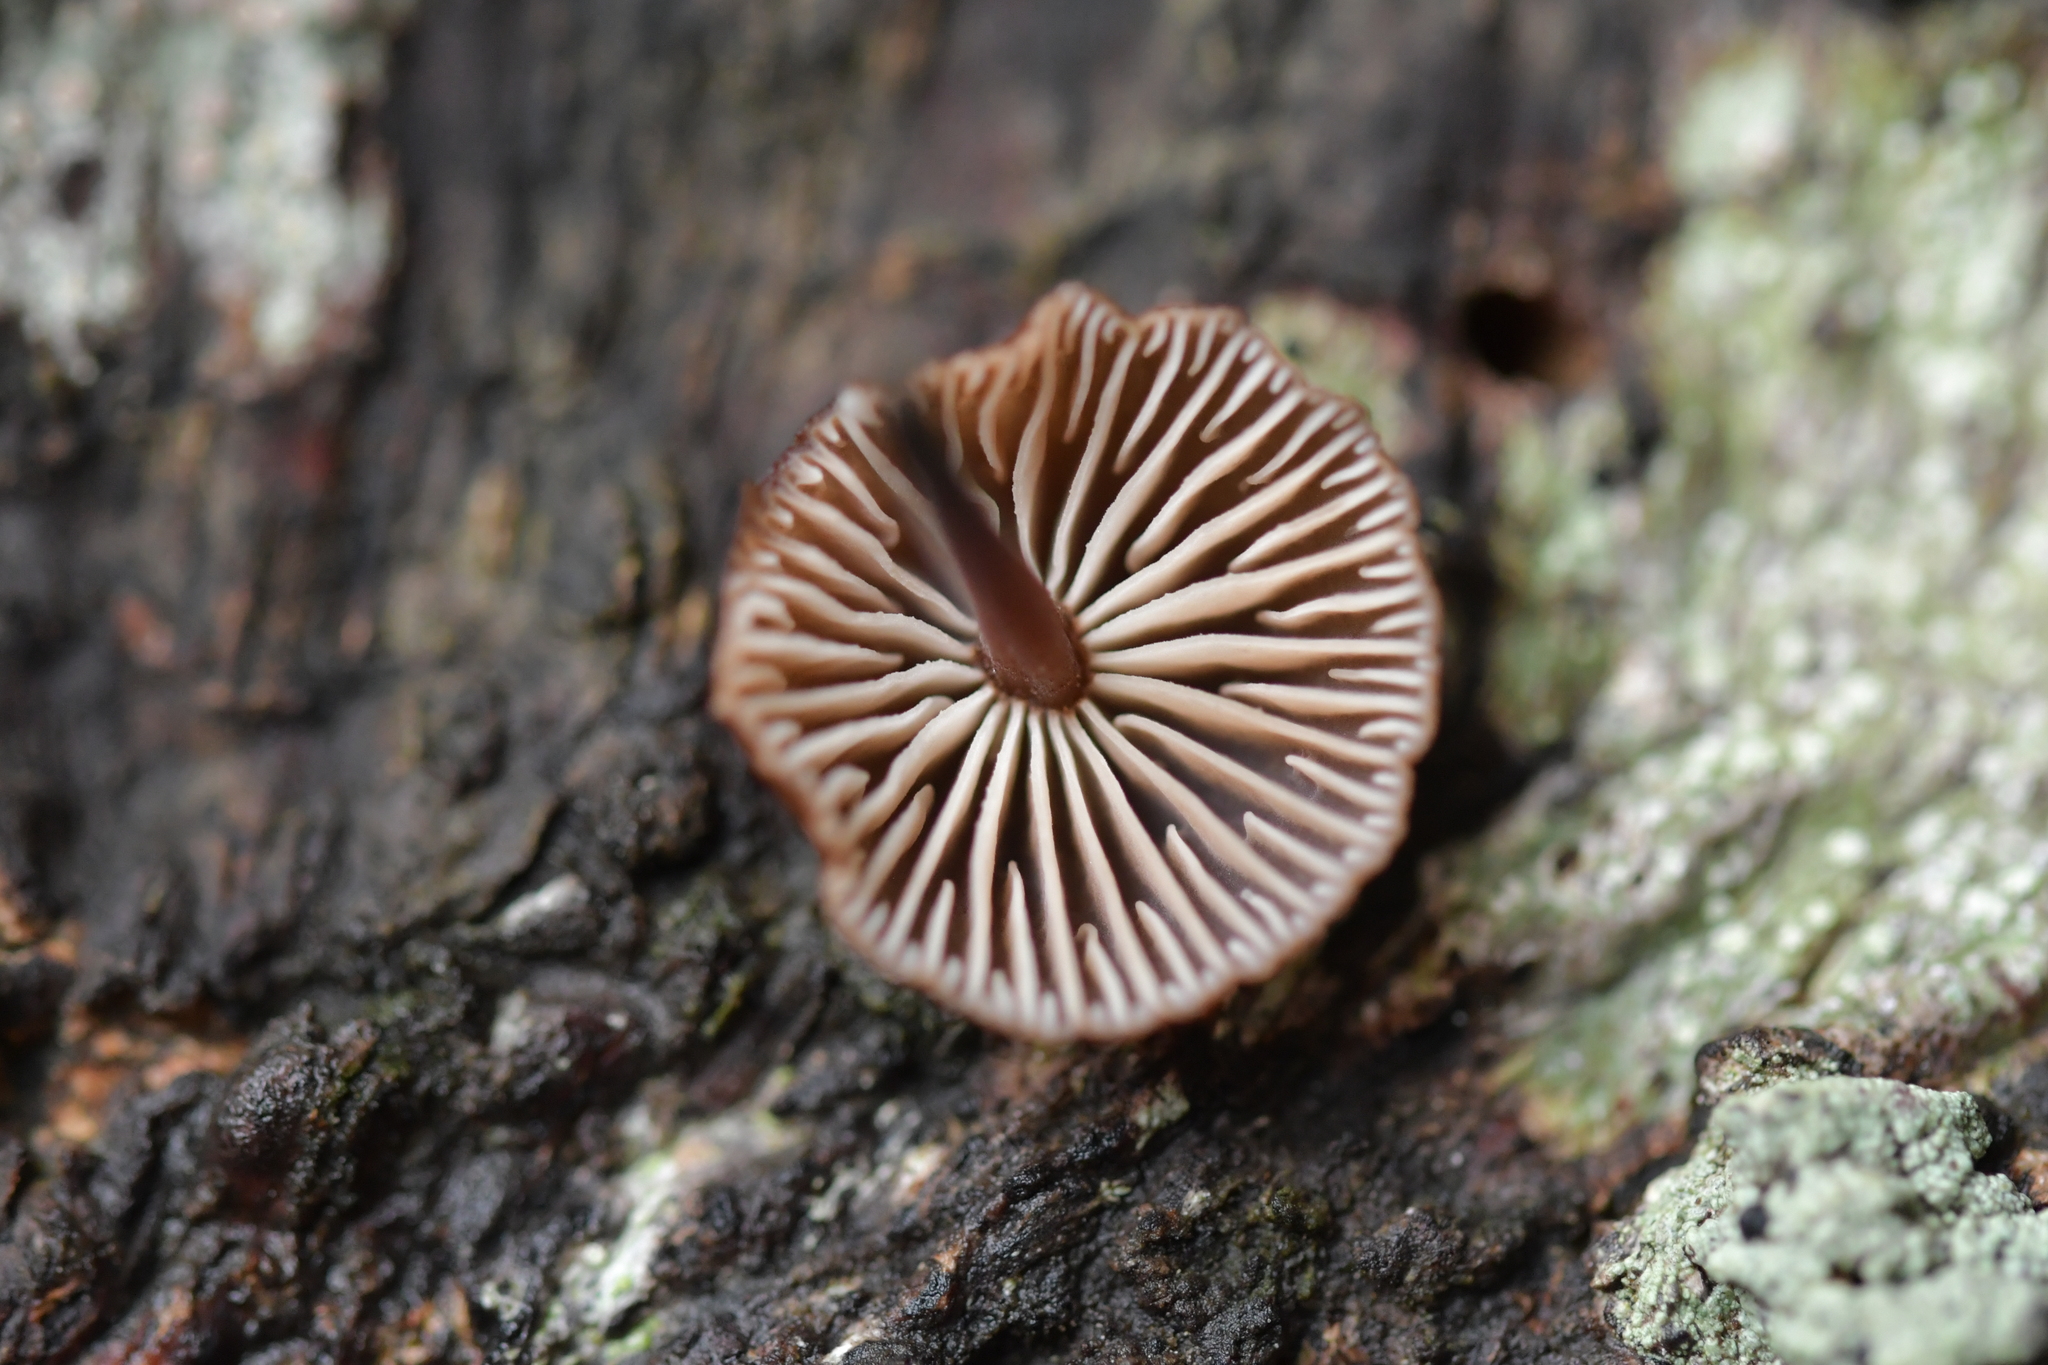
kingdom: Fungi
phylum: Basidiomycota
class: Agaricomycetes
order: Agaricales
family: Omphalotaceae
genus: Gymnopus
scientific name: Gymnopus ceraceicola
